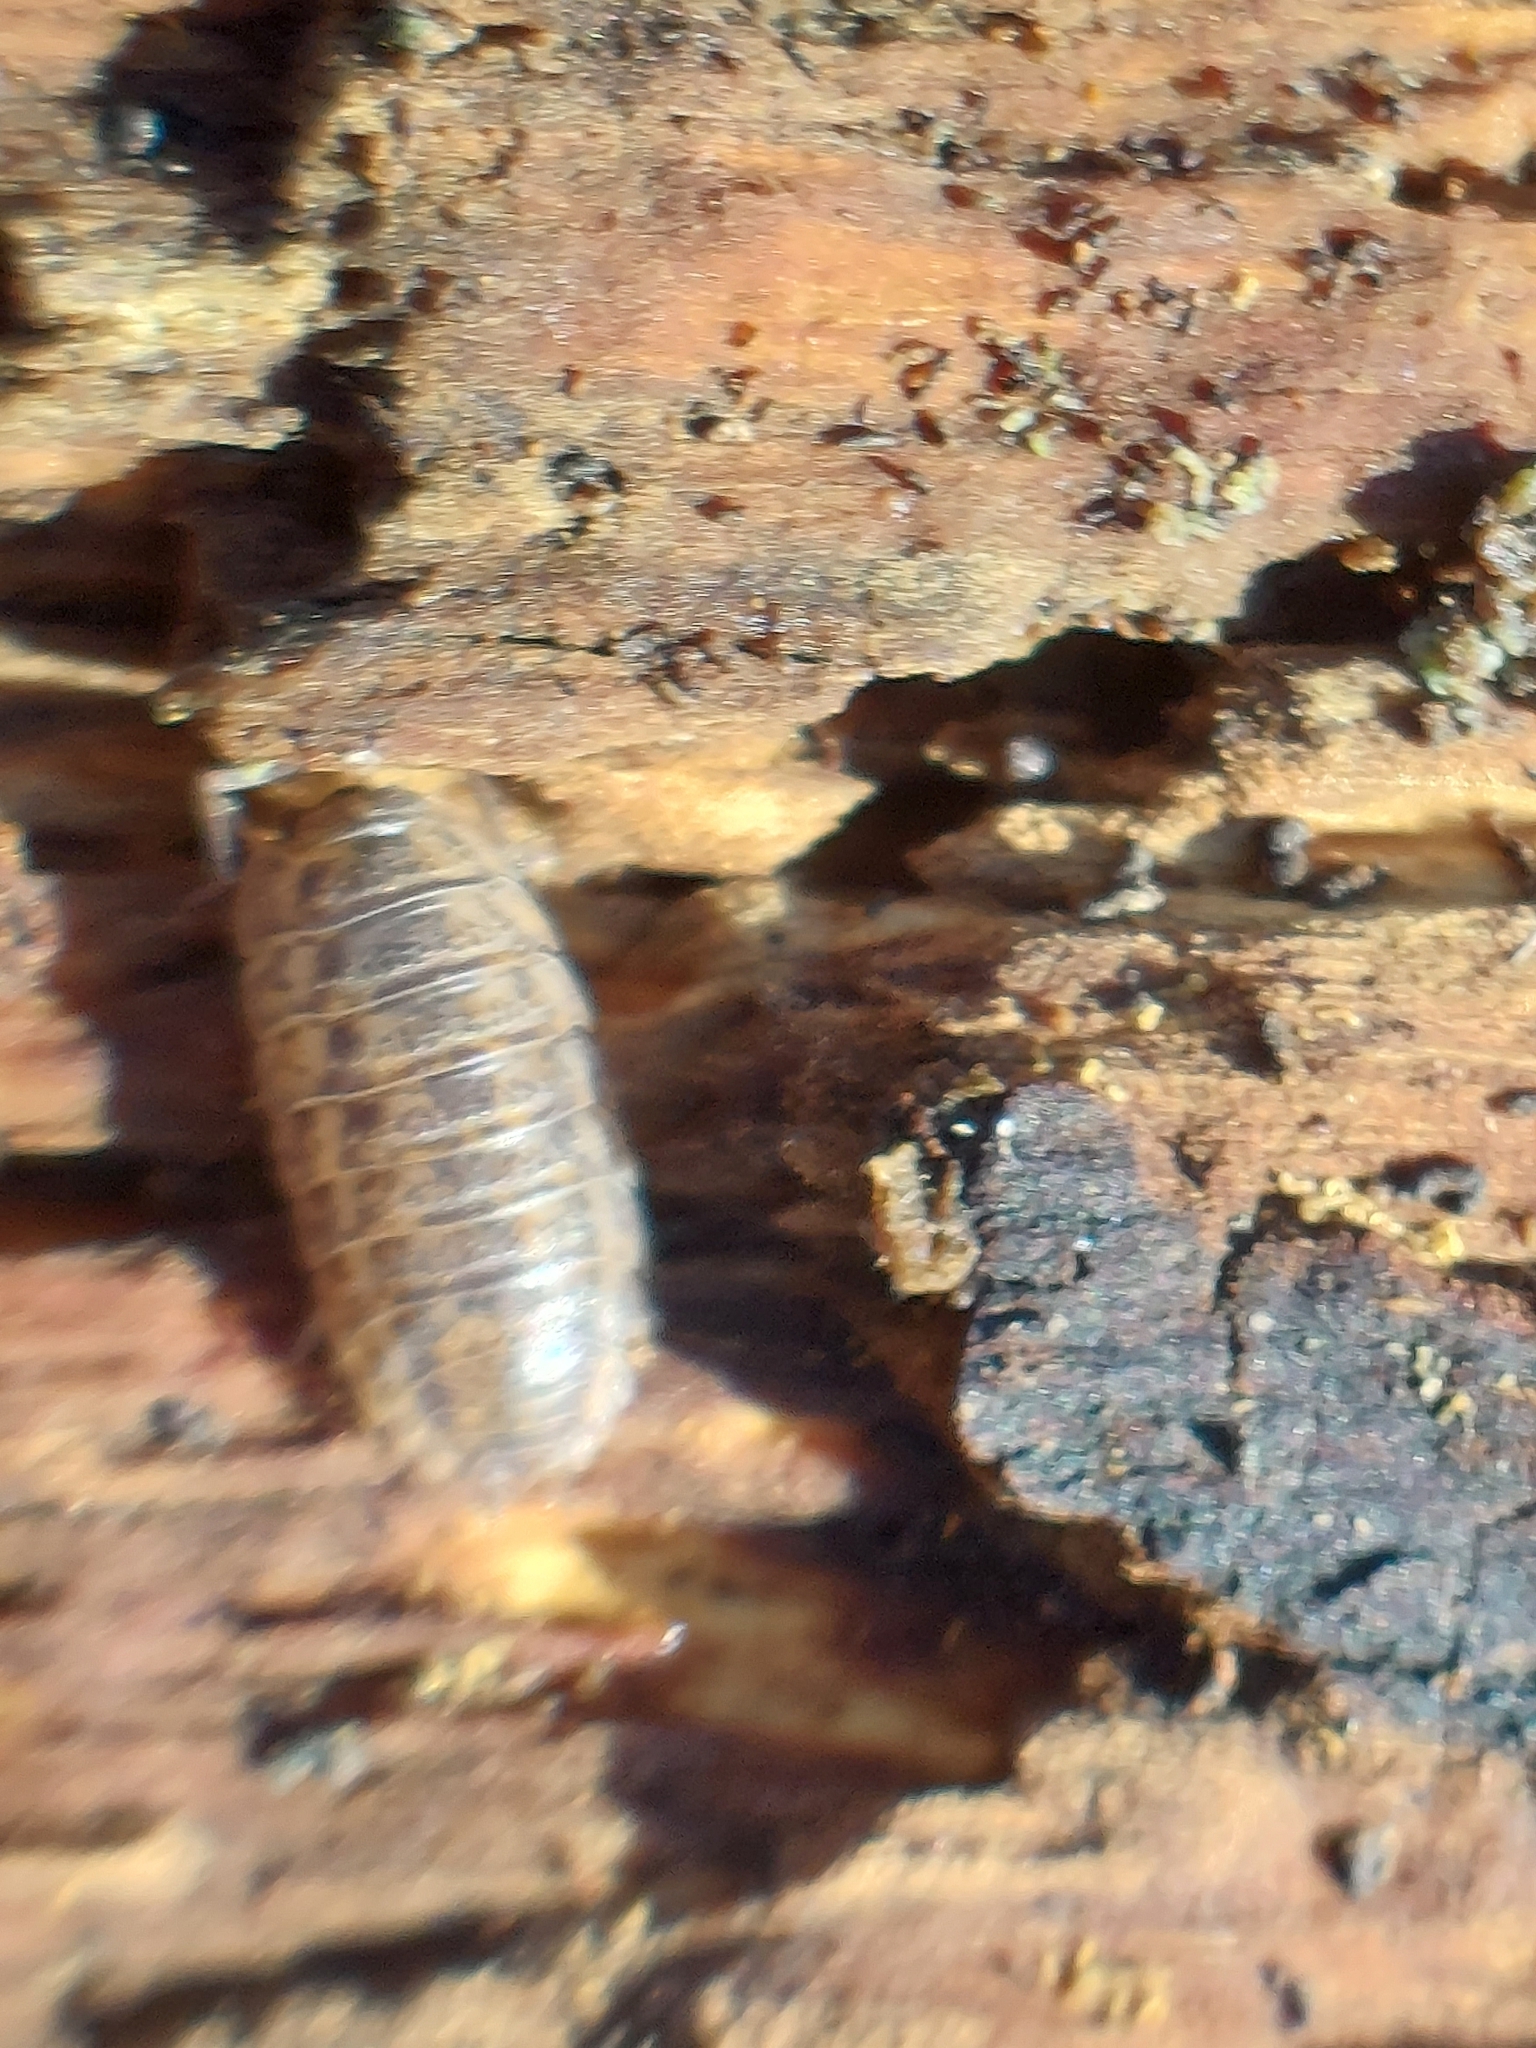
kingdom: Animalia
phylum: Arthropoda
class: Malacostraca
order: Isopoda
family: Trachelipodidae
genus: Trachelipus
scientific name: Trachelipus rathkii
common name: Isopod
